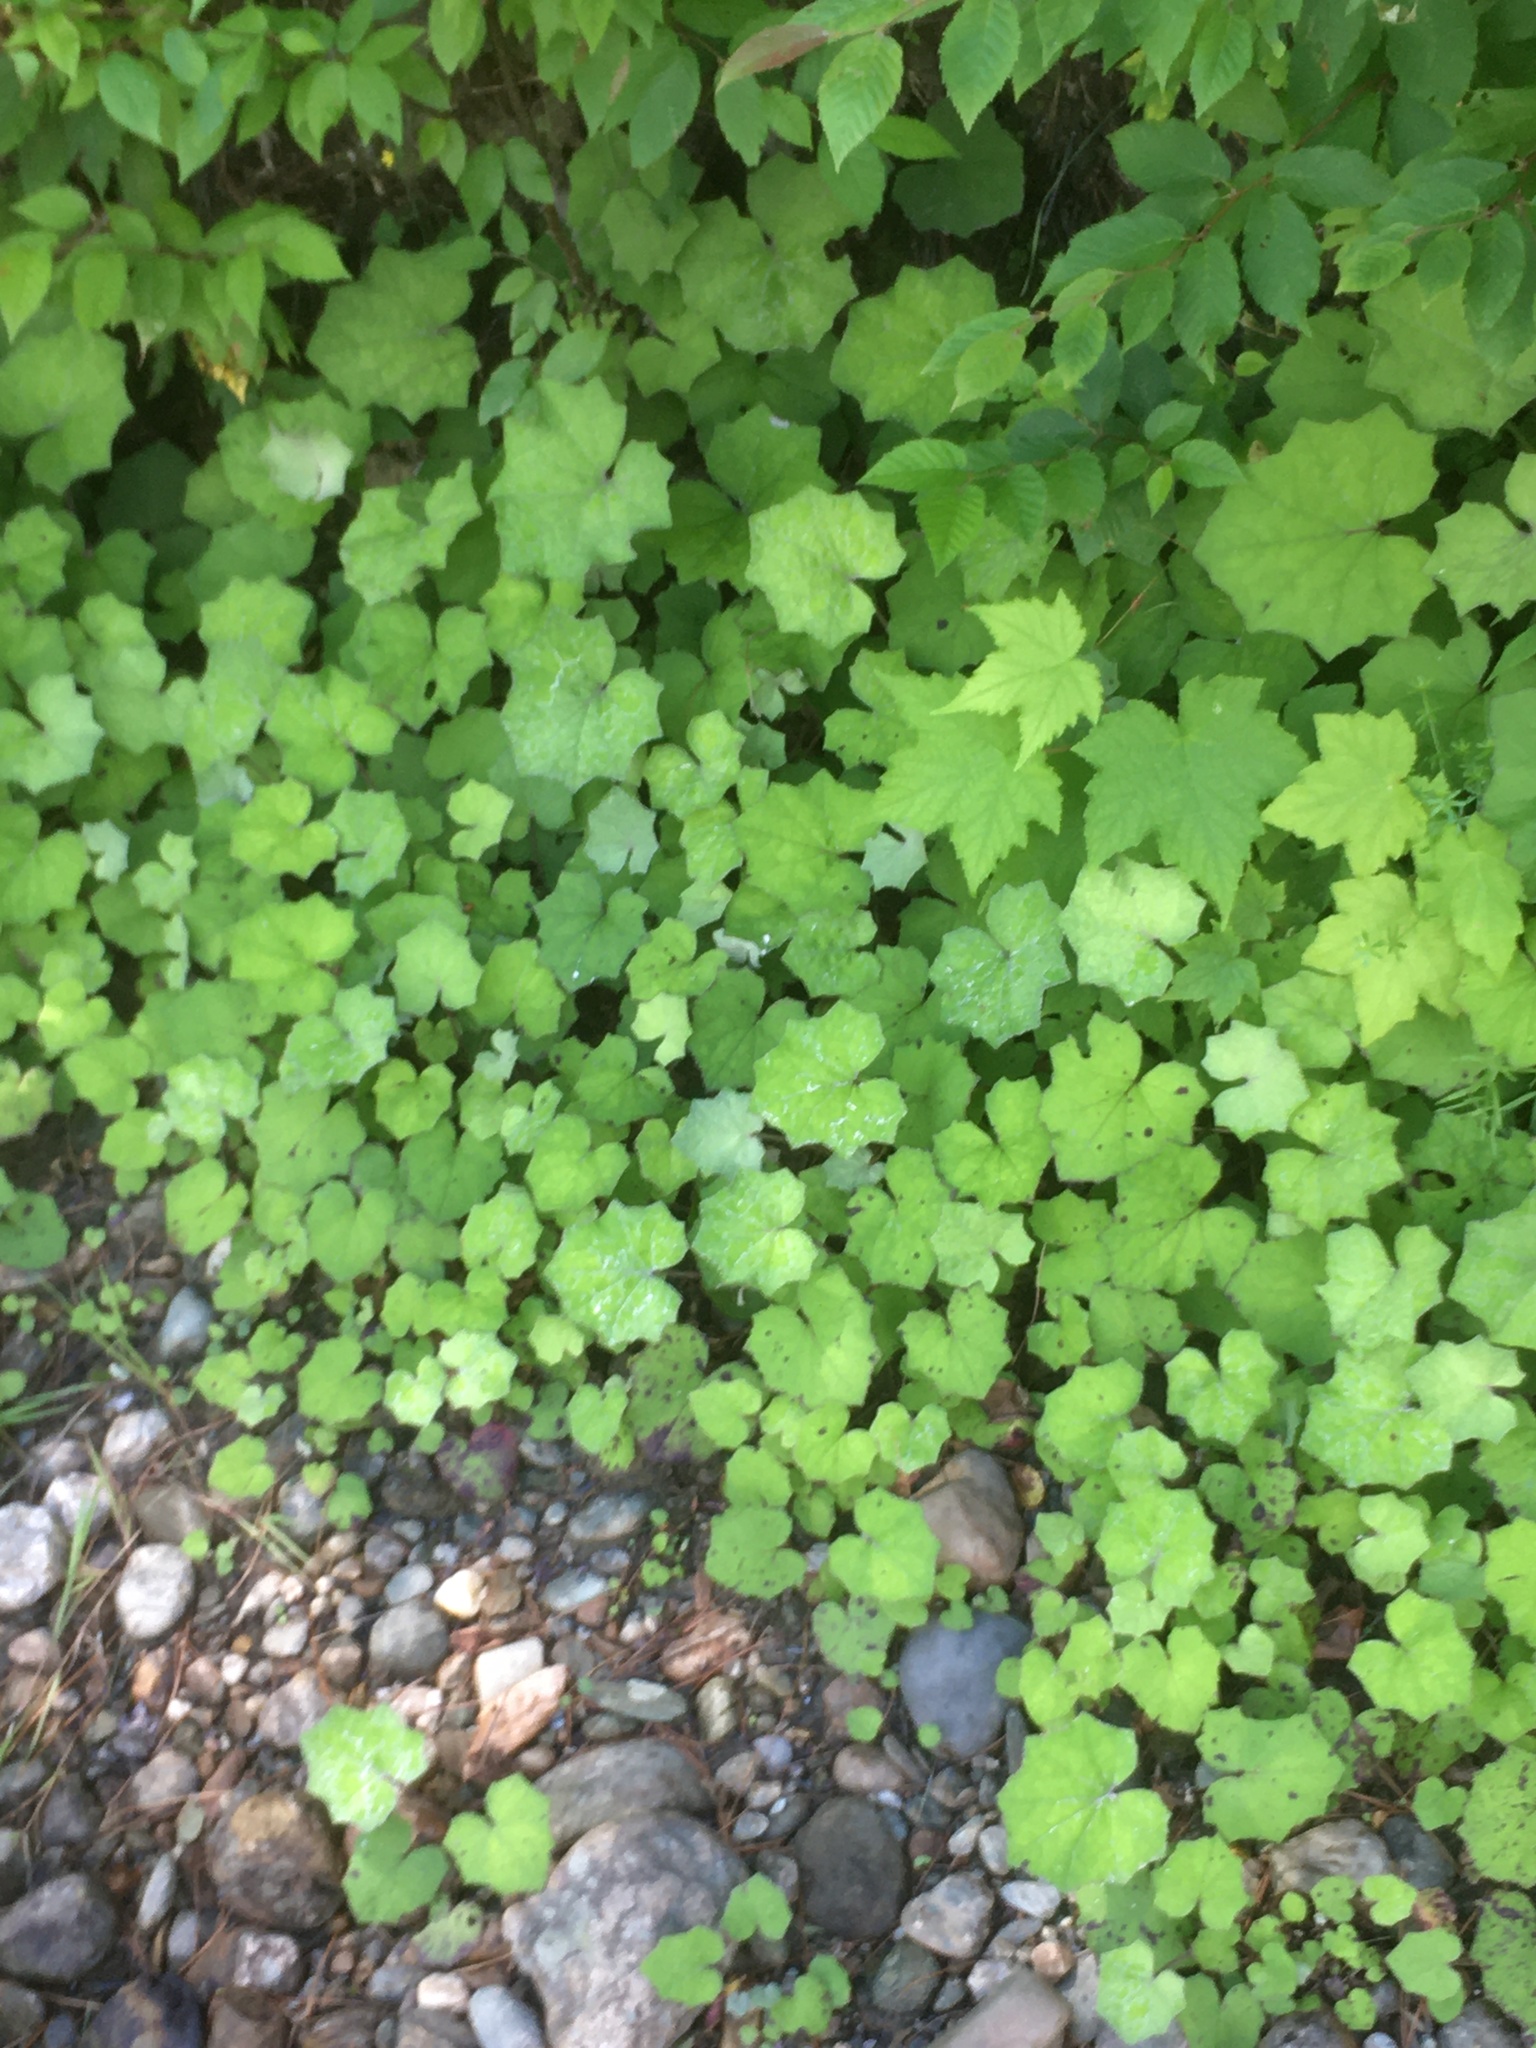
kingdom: Plantae
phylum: Tracheophyta
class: Magnoliopsida
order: Asterales
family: Asteraceae
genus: Tussilago
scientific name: Tussilago farfara
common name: Coltsfoot
